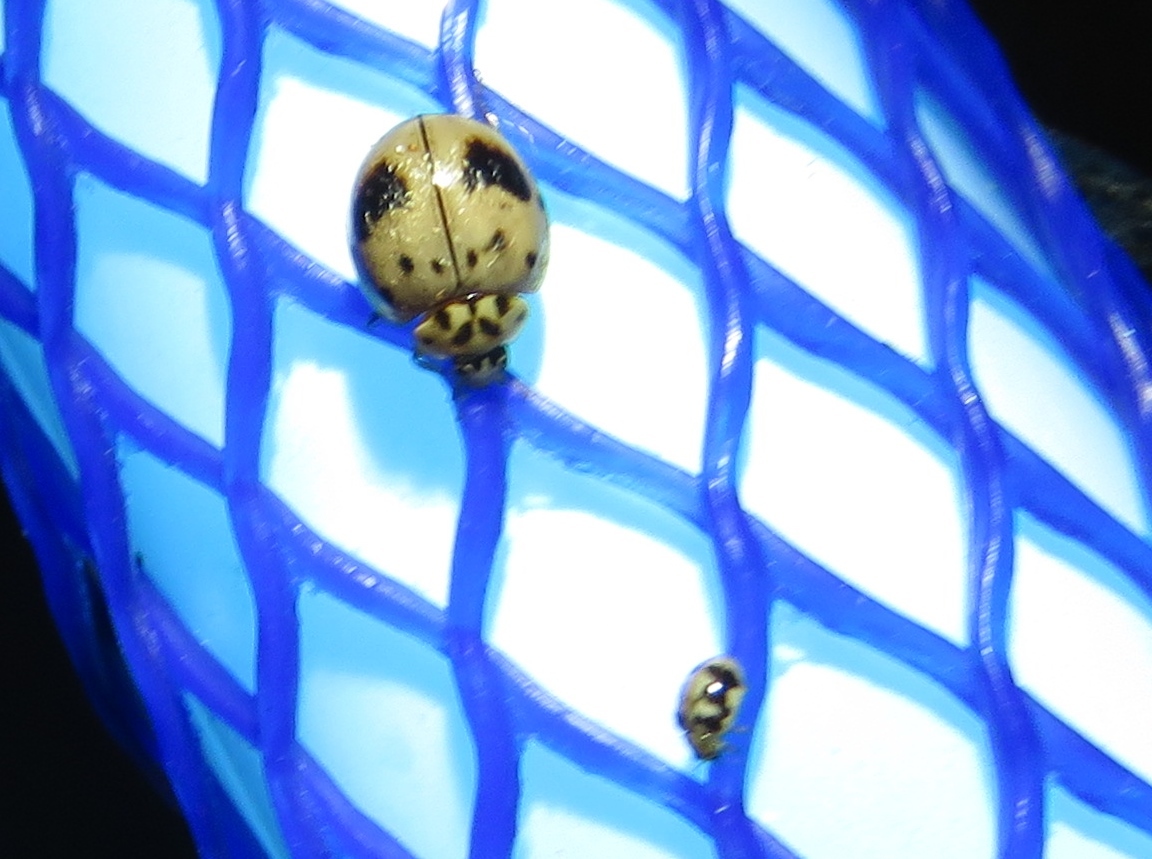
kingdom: Animalia
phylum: Arthropoda
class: Insecta
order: Coleoptera
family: Coccinellidae
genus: Olla
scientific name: Olla v-nigrum
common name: Ashy gray lady beetle
